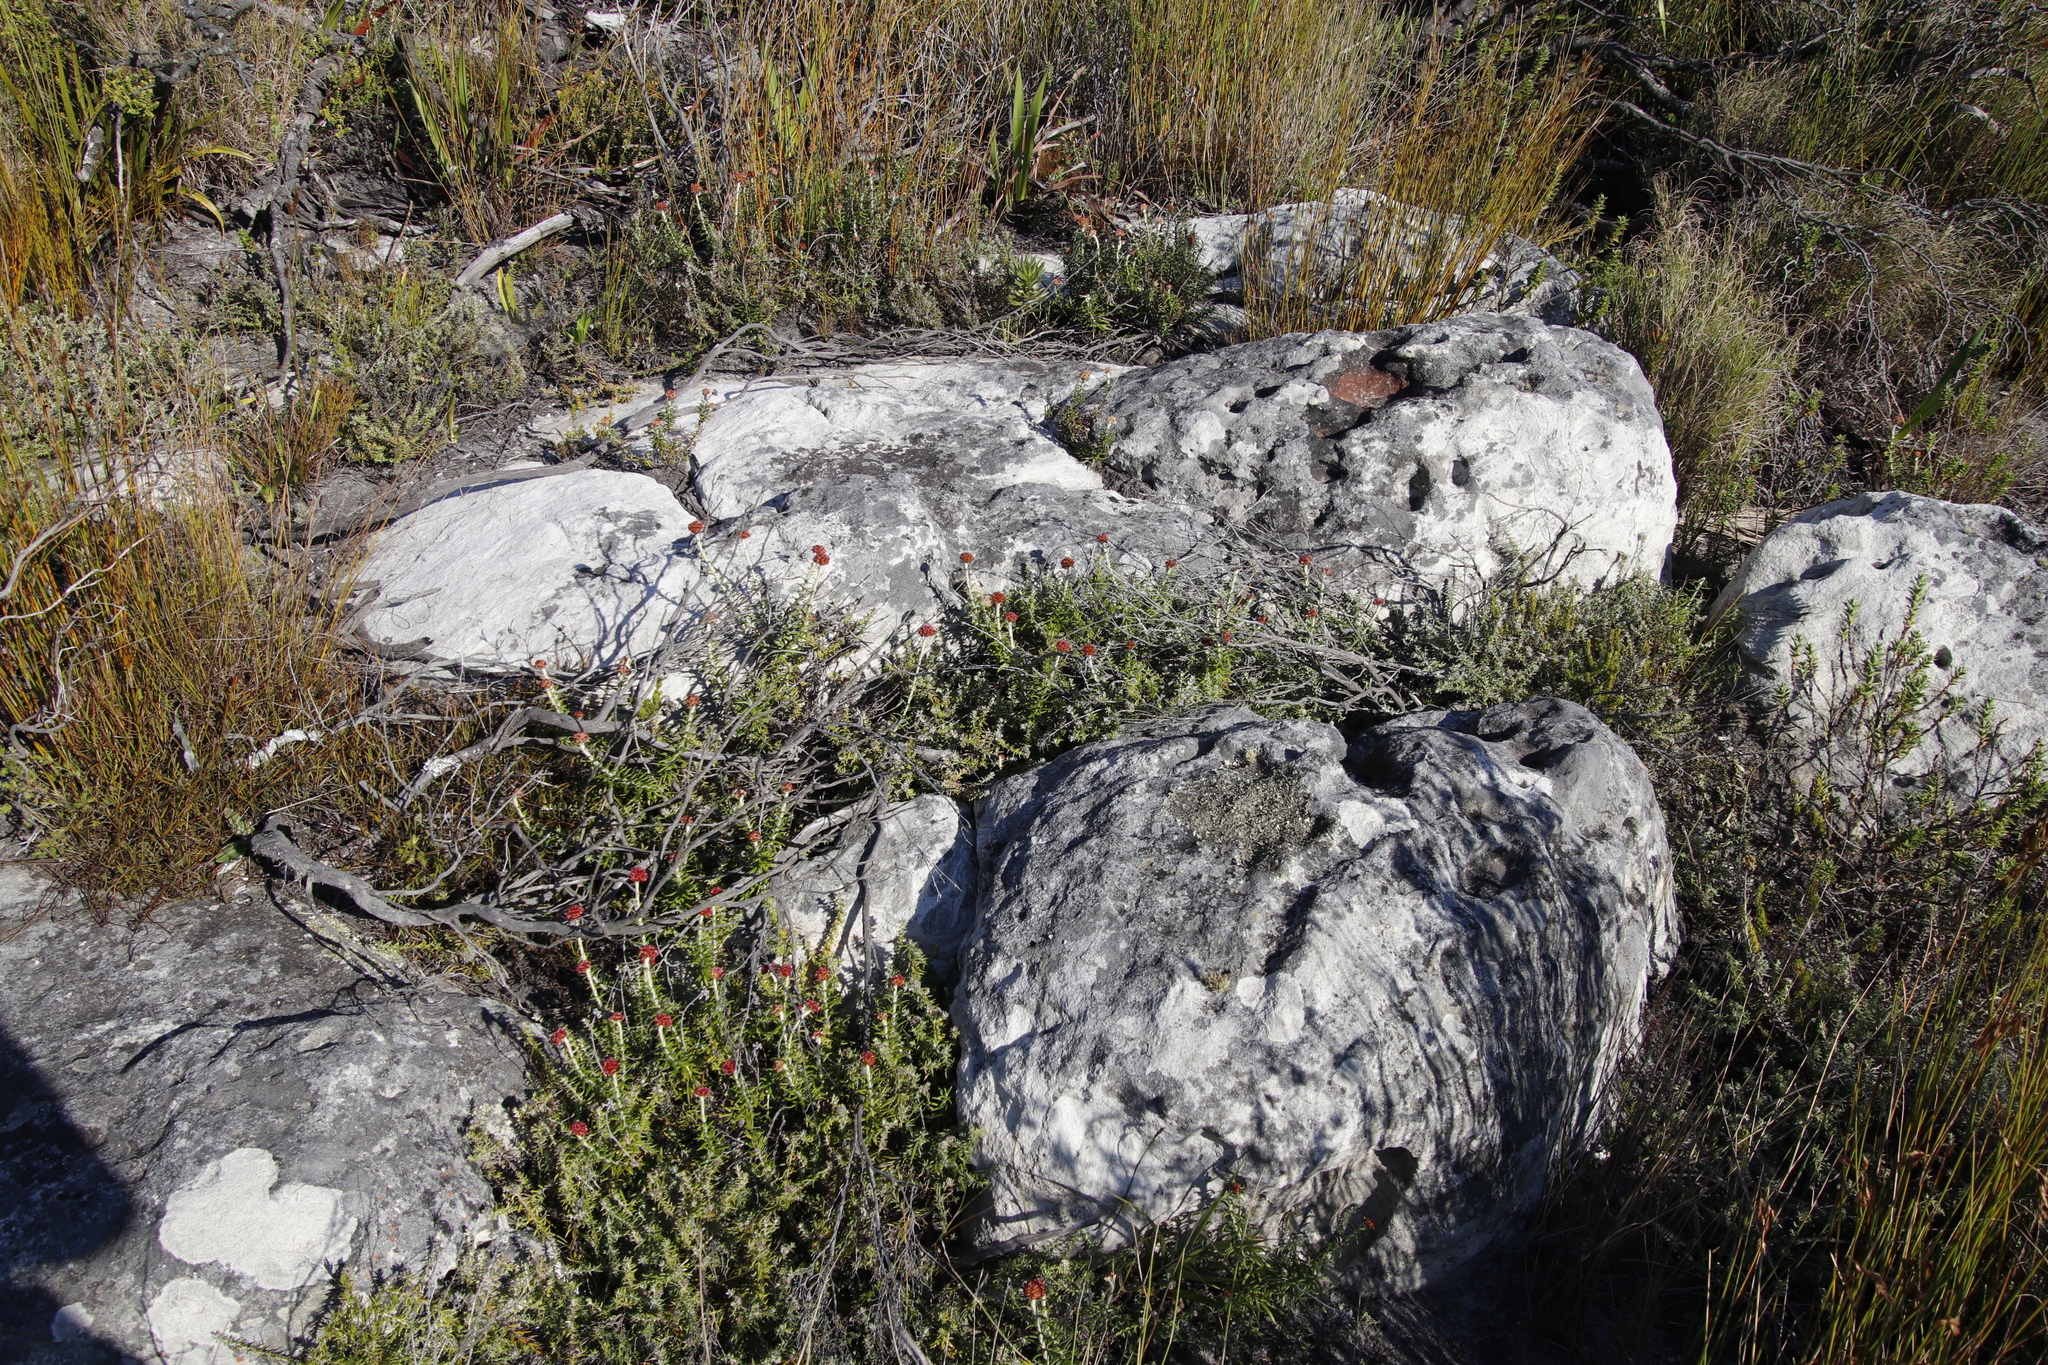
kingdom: Plantae
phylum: Tracheophyta
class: Magnoliopsida
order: Asterales
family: Asteraceae
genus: Anaxeton
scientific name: Anaxeton arborescens
